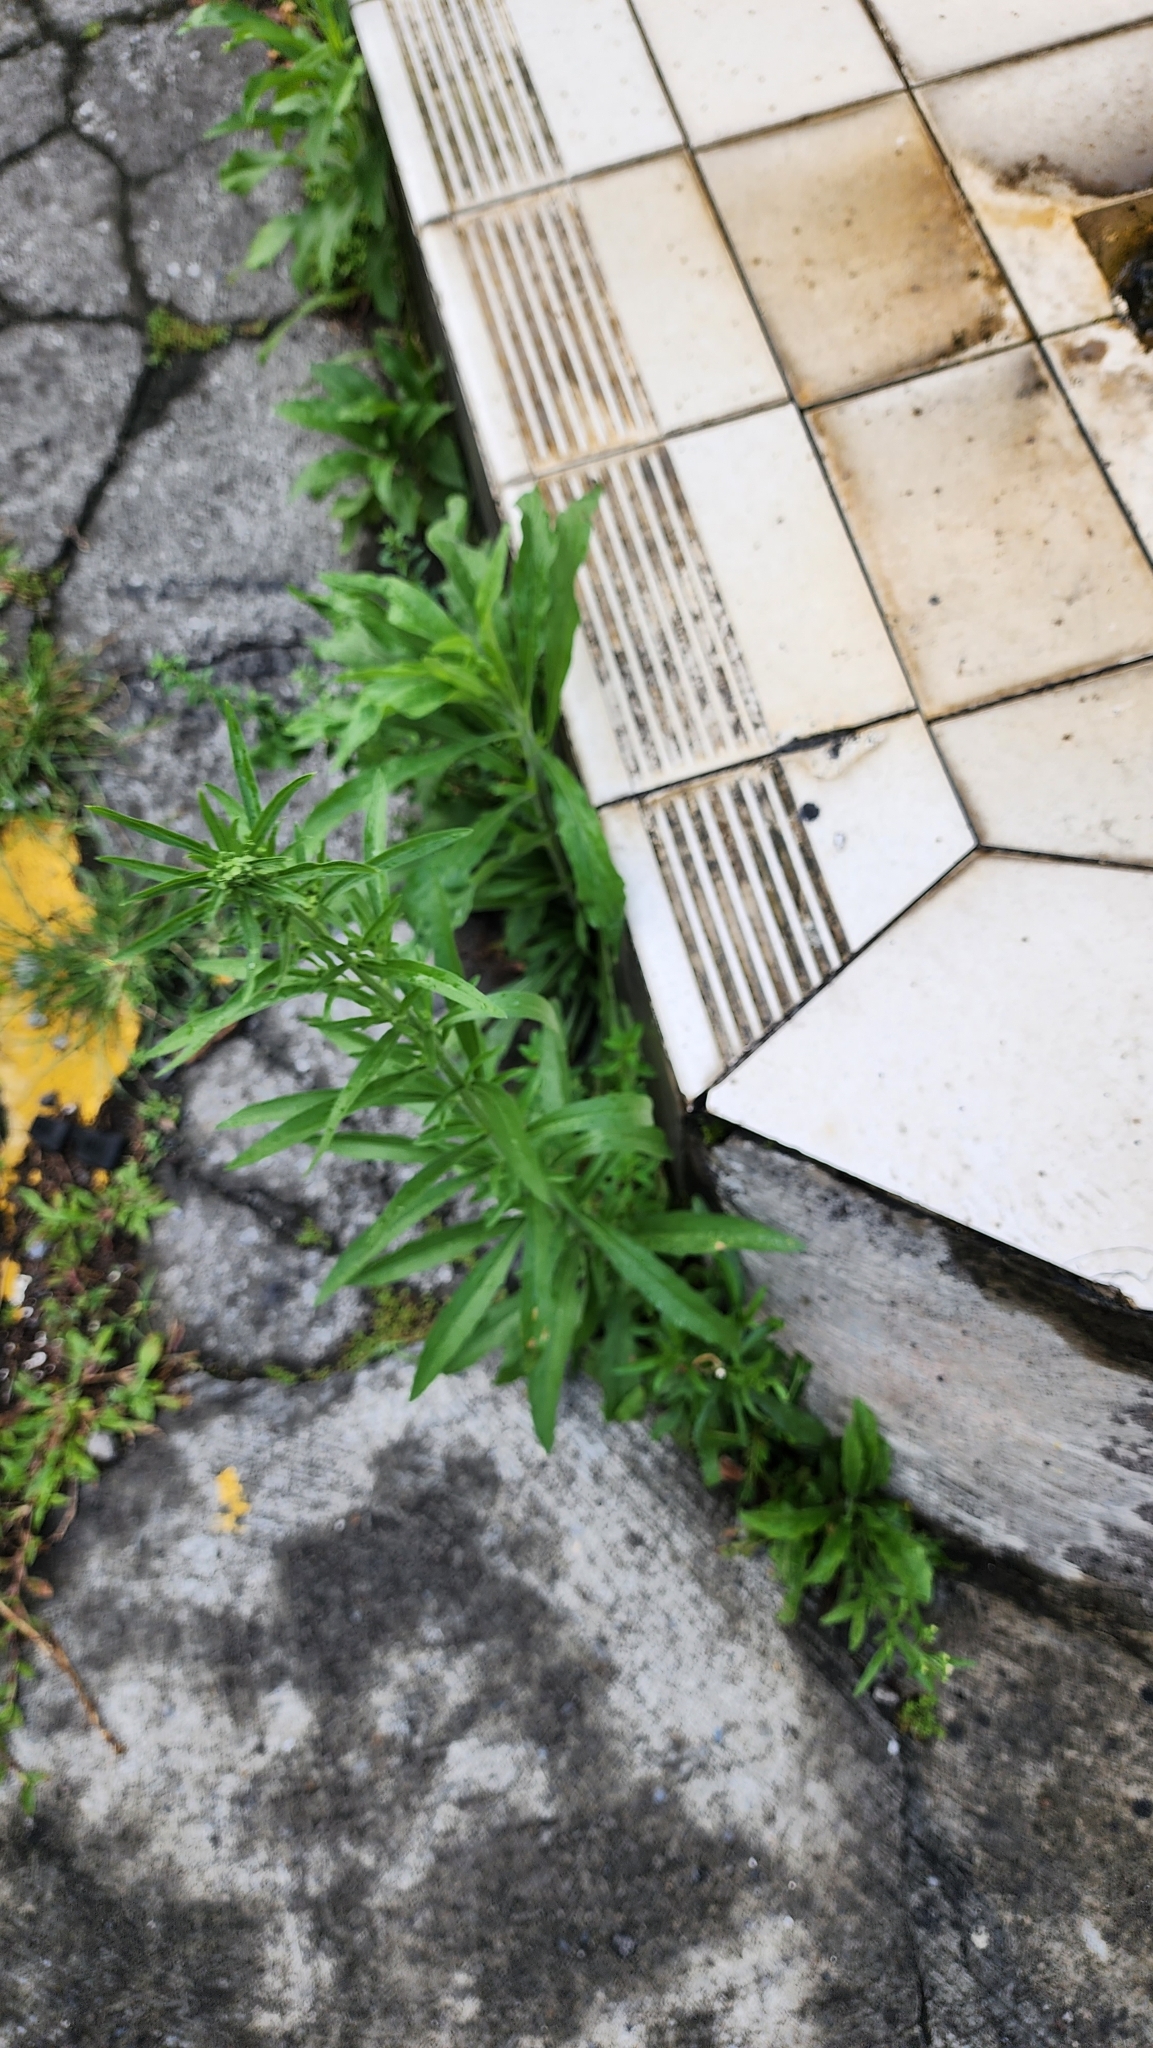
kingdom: Plantae
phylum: Tracheophyta
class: Magnoliopsida
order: Asterales
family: Asteraceae
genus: Erigeron
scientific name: Erigeron sumatrensis
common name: Daisy
